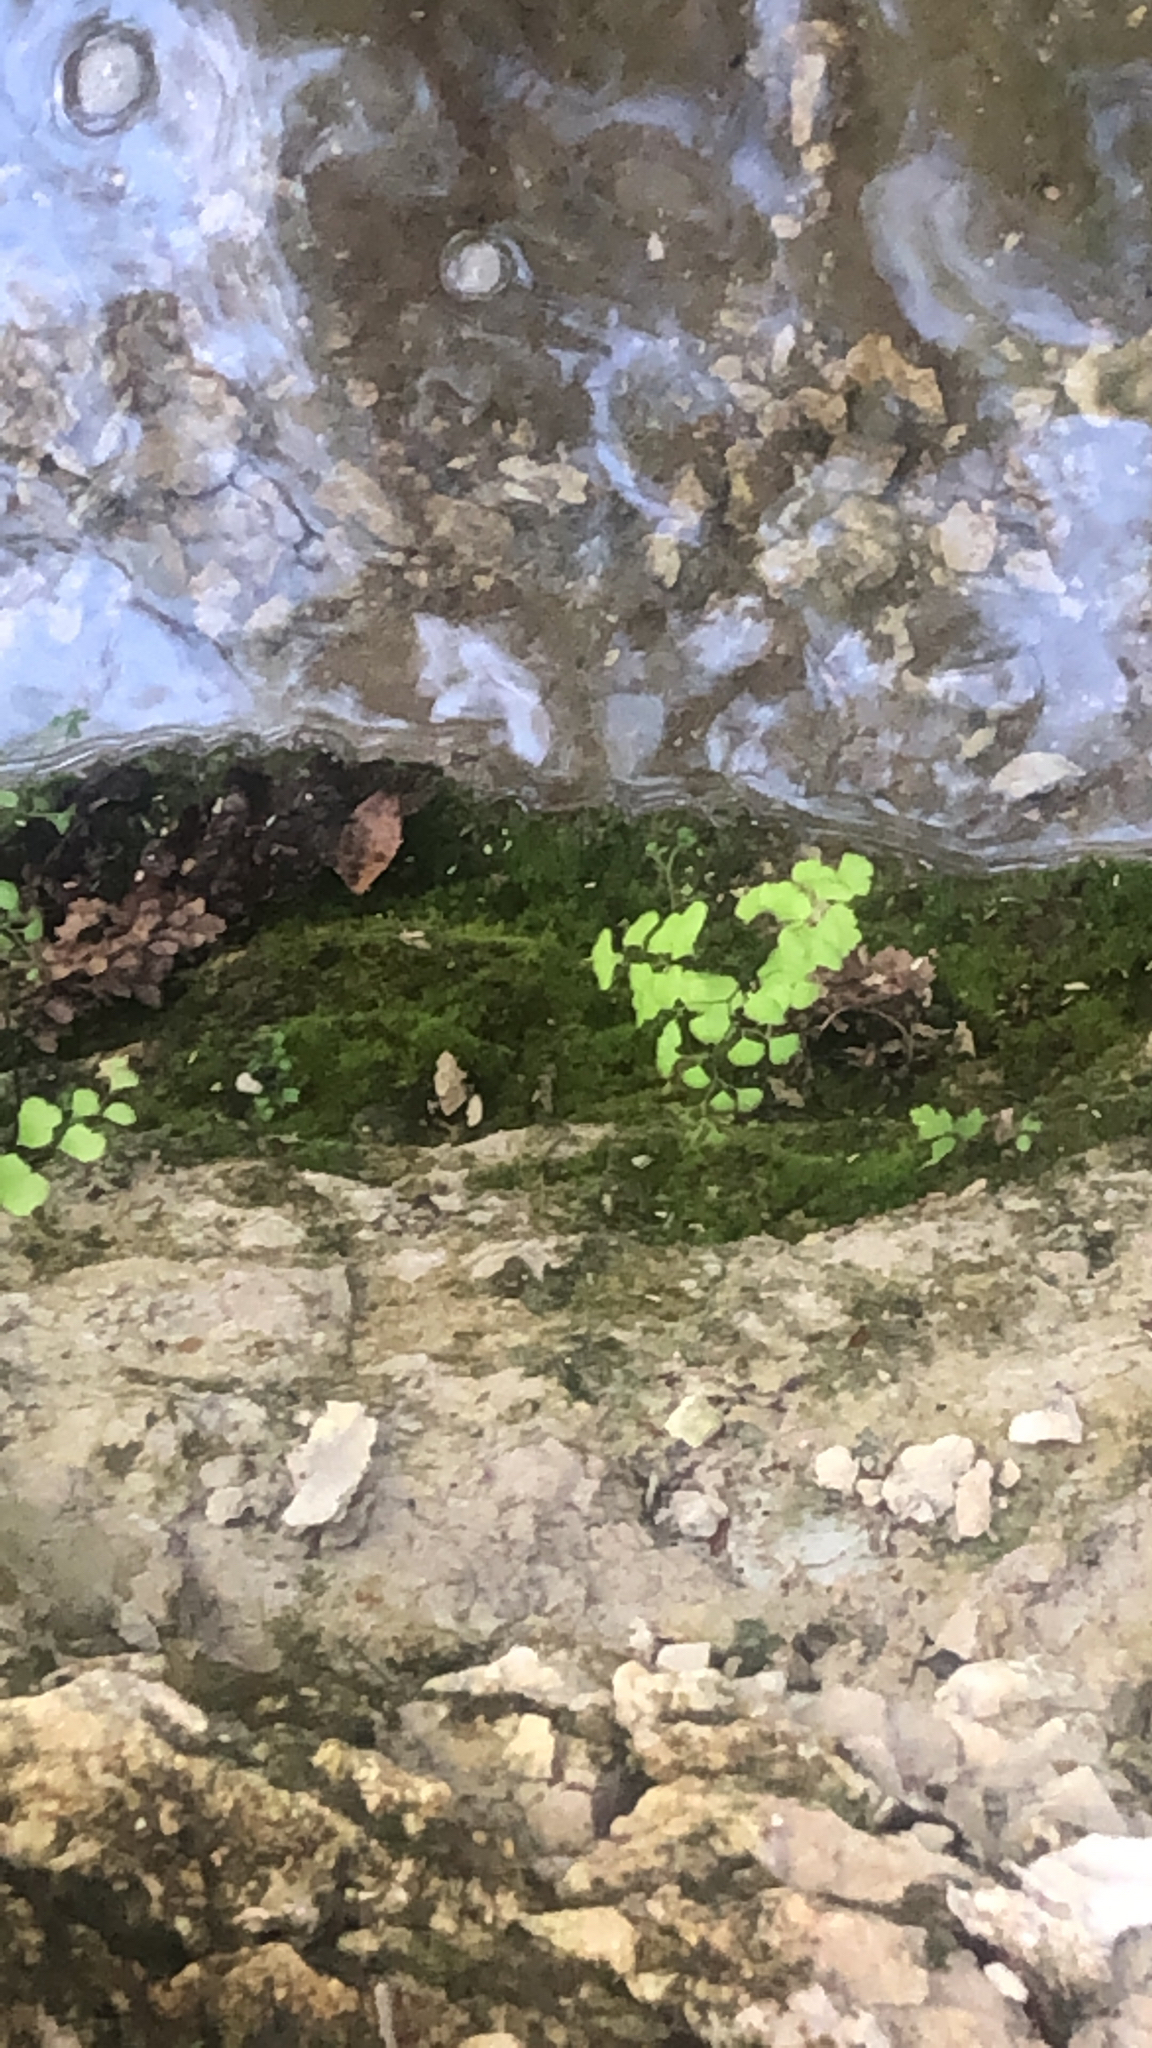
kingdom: Plantae
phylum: Tracheophyta
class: Polypodiopsida
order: Polypodiales
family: Pteridaceae
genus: Adiantum
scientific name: Adiantum capillus-veneris
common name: Maidenhair fern
